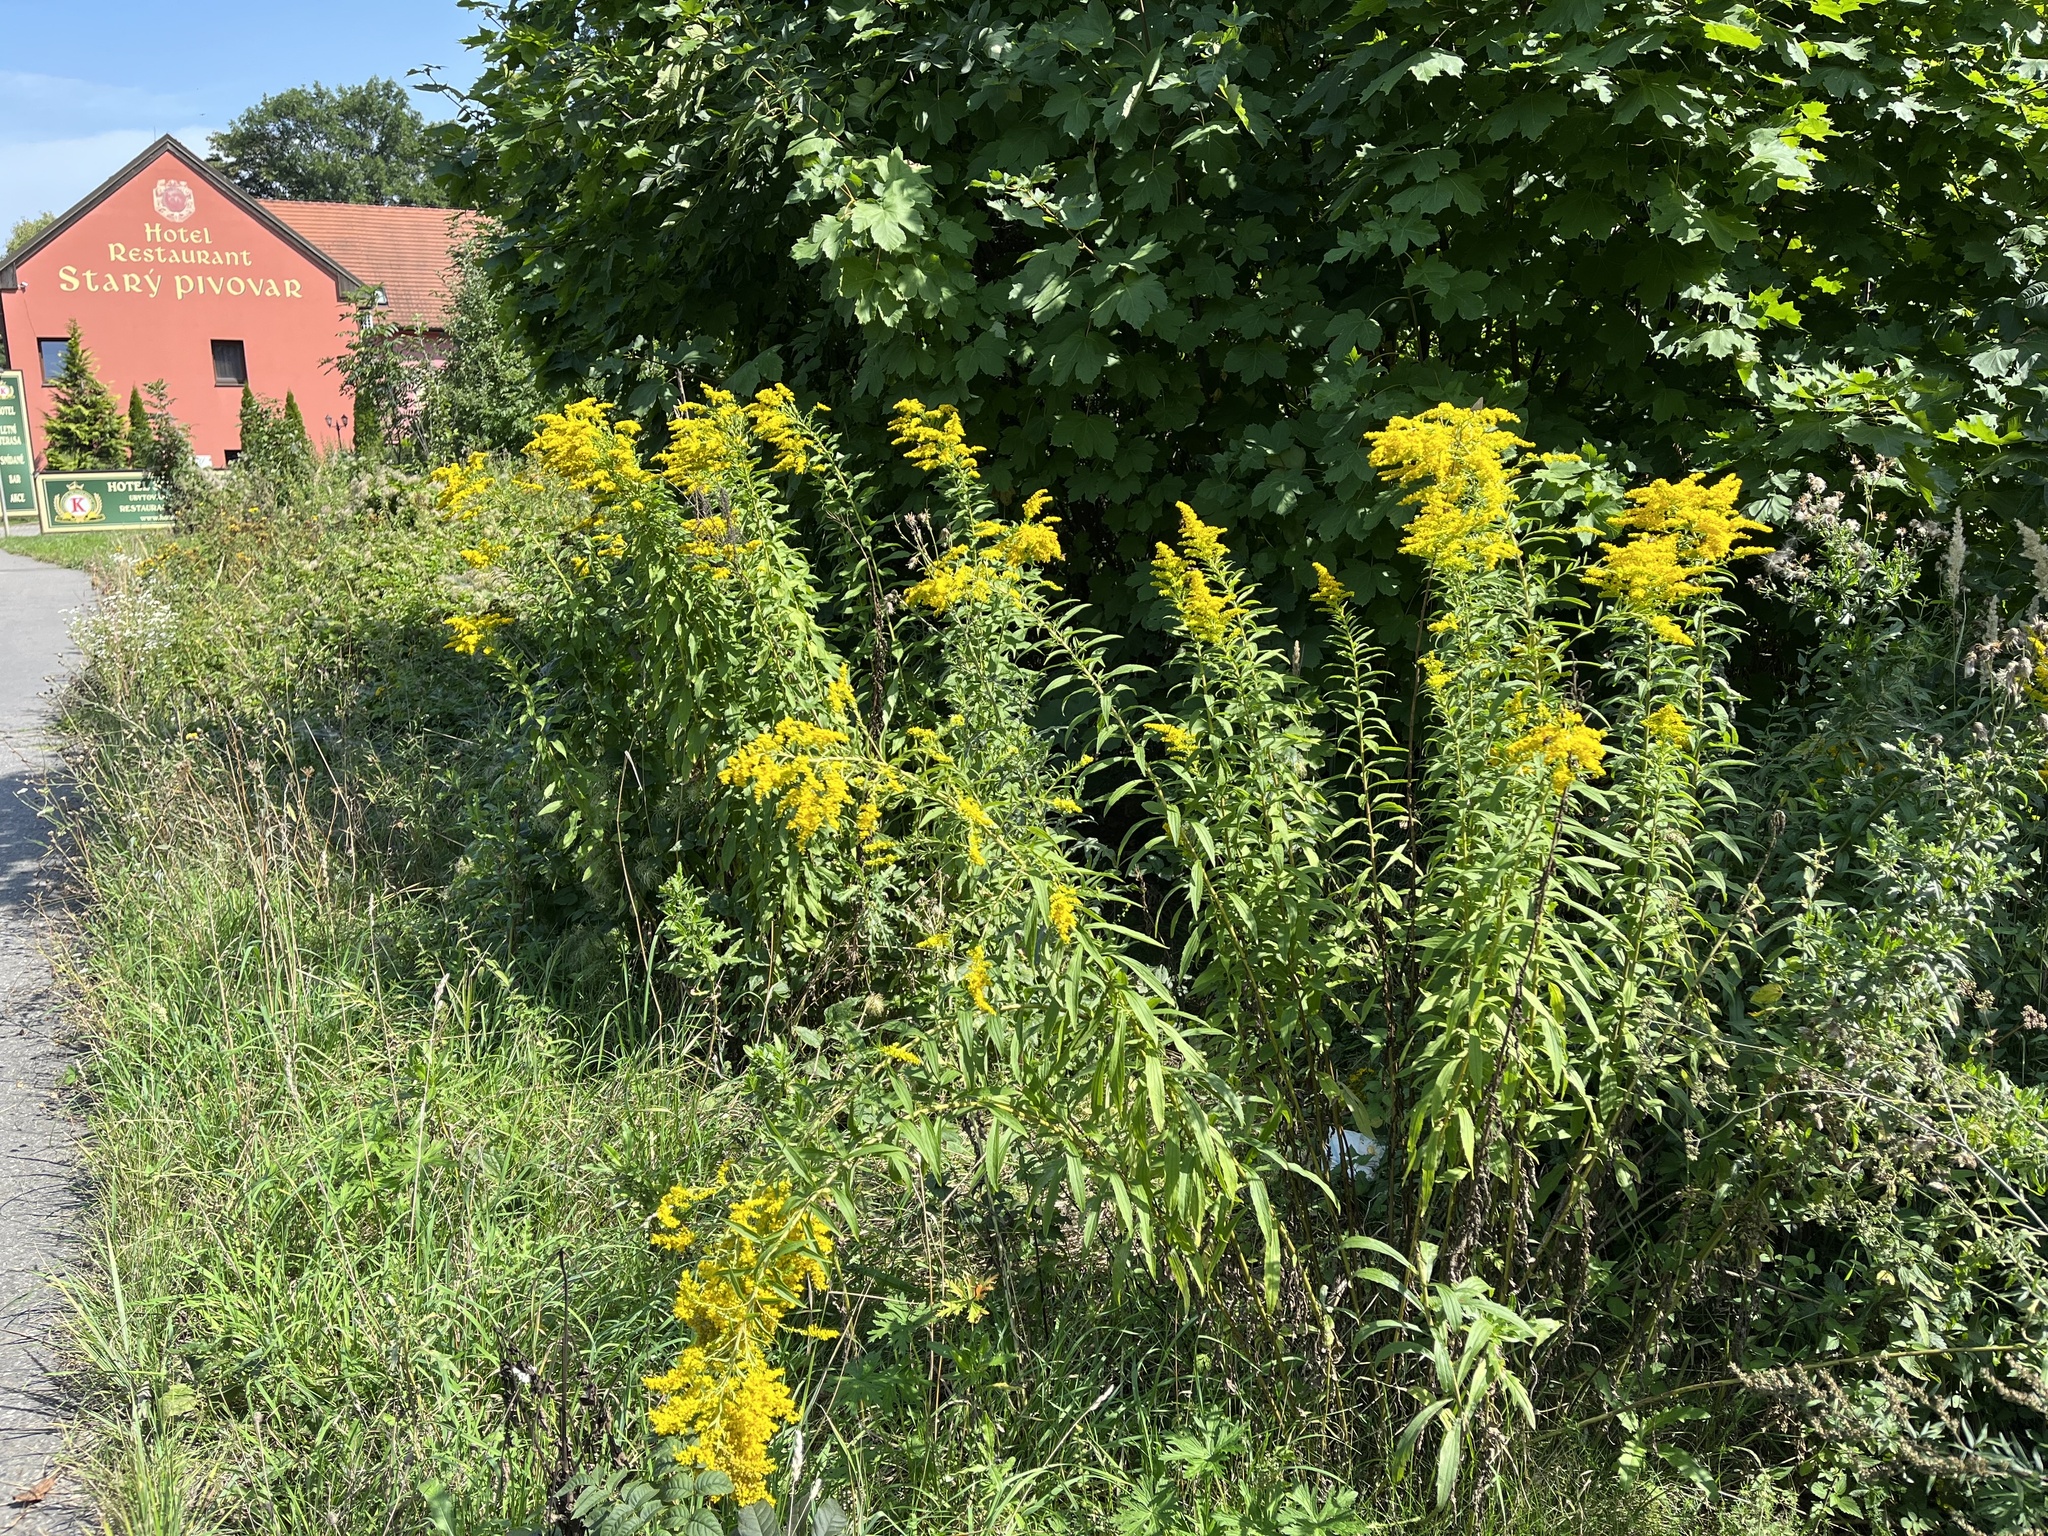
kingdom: Plantae
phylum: Tracheophyta
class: Magnoliopsida
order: Asterales
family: Asteraceae
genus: Solidago
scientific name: Solidago canadensis
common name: Canada goldenrod
